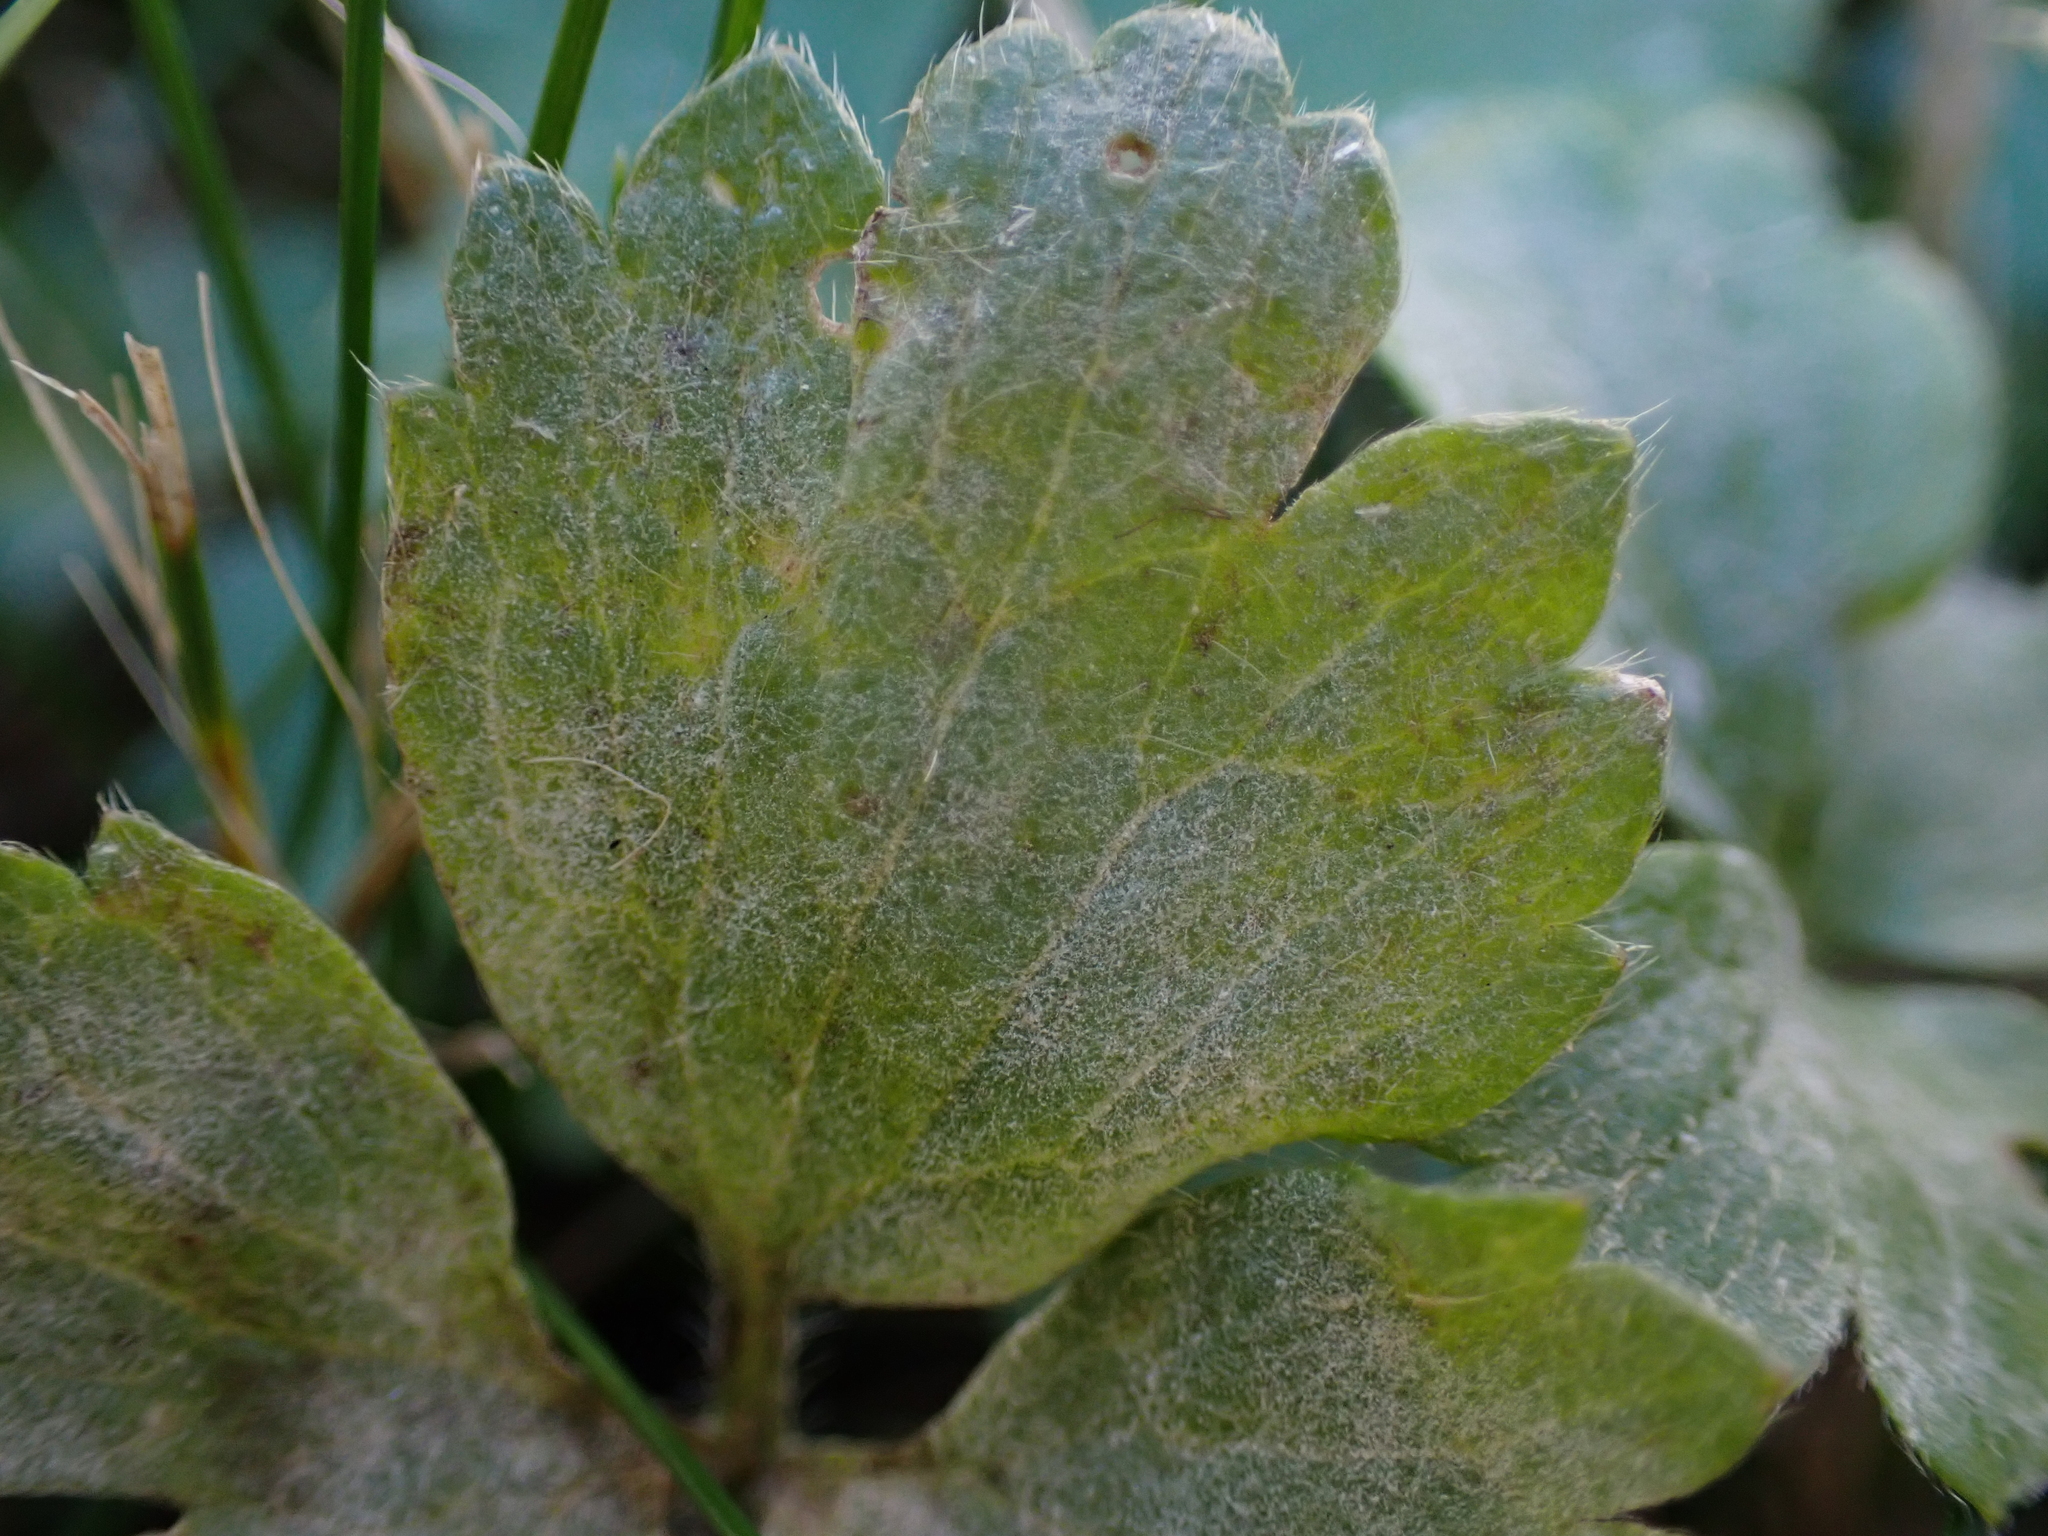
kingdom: Fungi
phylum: Ascomycota
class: Leotiomycetes
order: Helotiales
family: Erysiphaceae
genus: Erysiphe
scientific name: Erysiphe aquilegiae
